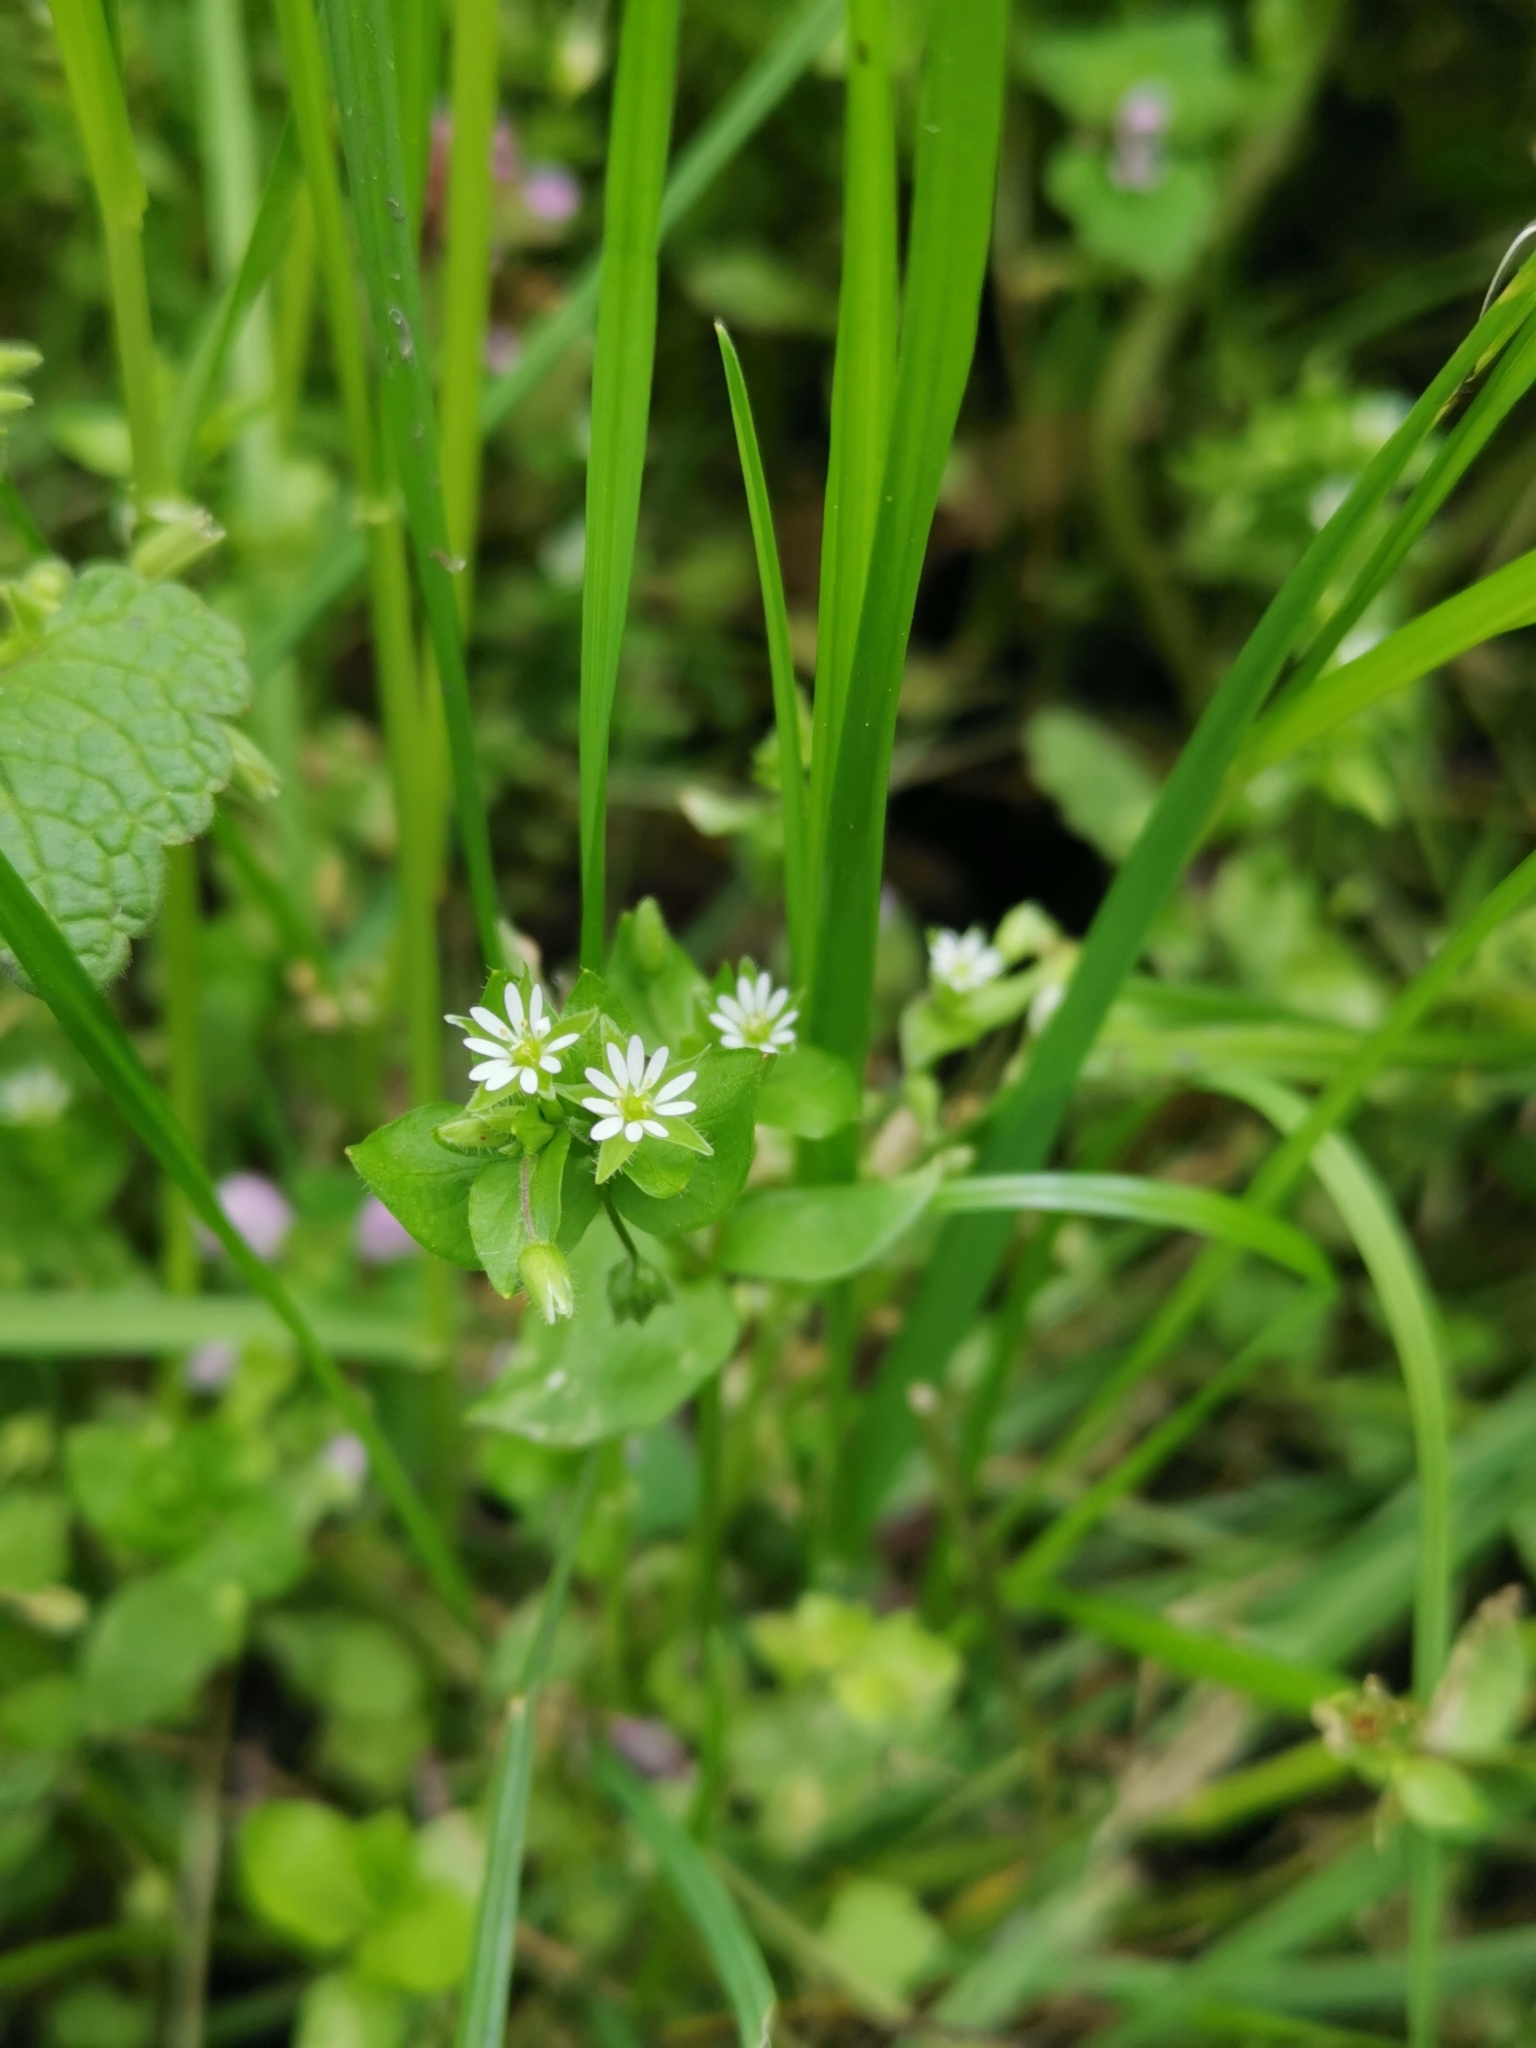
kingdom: Plantae
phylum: Tracheophyta
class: Magnoliopsida
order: Caryophyllales
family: Caryophyllaceae
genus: Stellaria
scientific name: Stellaria media
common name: Common chickweed
